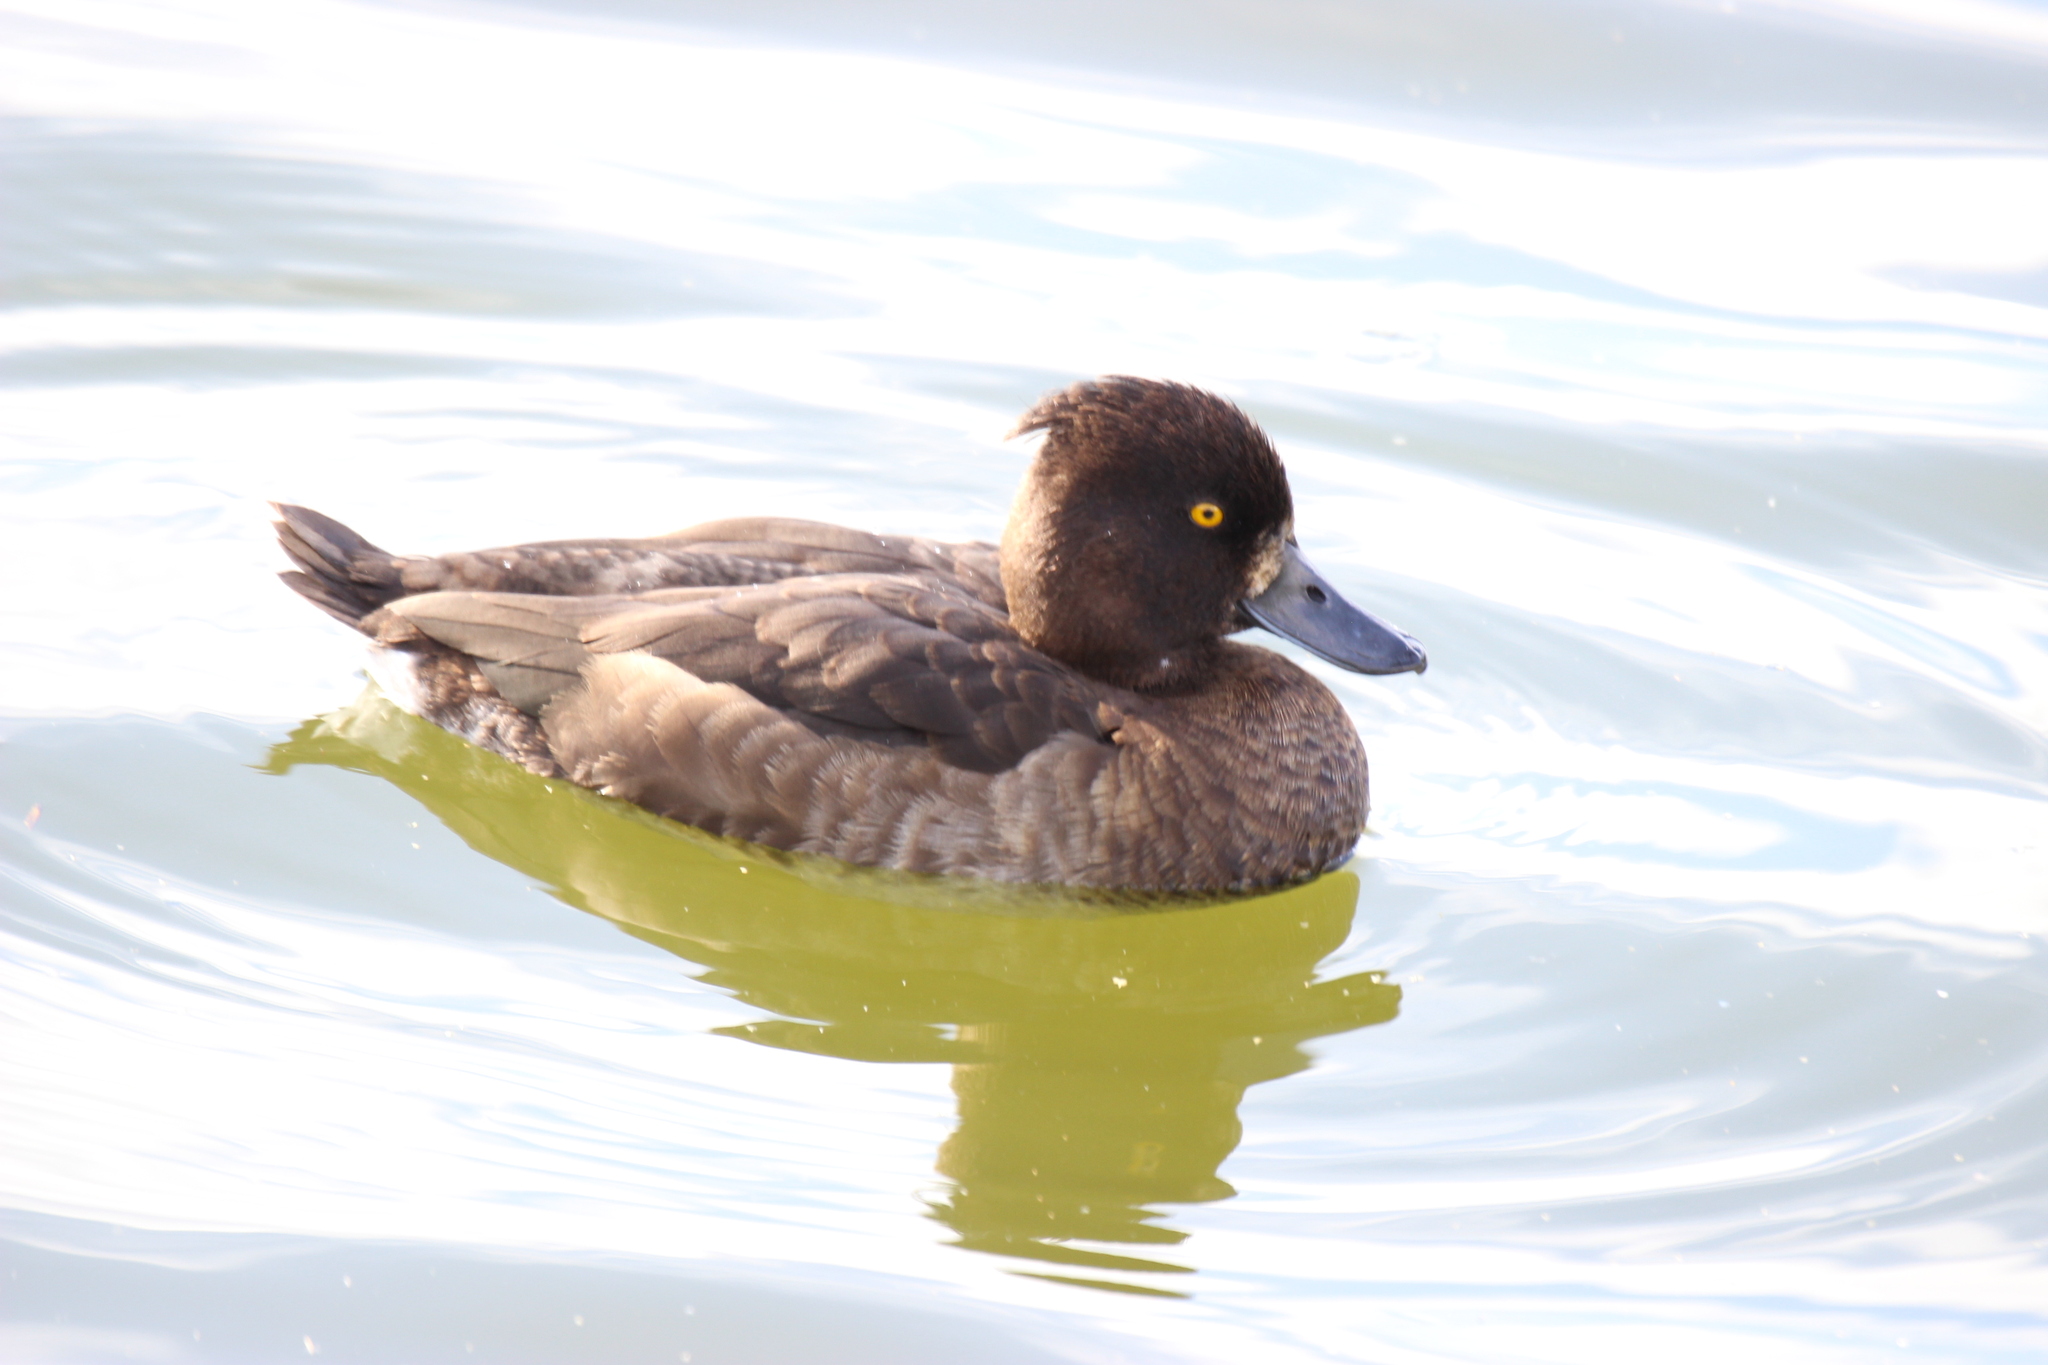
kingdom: Animalia
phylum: Chordata
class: Aves
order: Anseriformes
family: Anatidae
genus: Aythya
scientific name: Aythya fuligula
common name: Tufted duck
